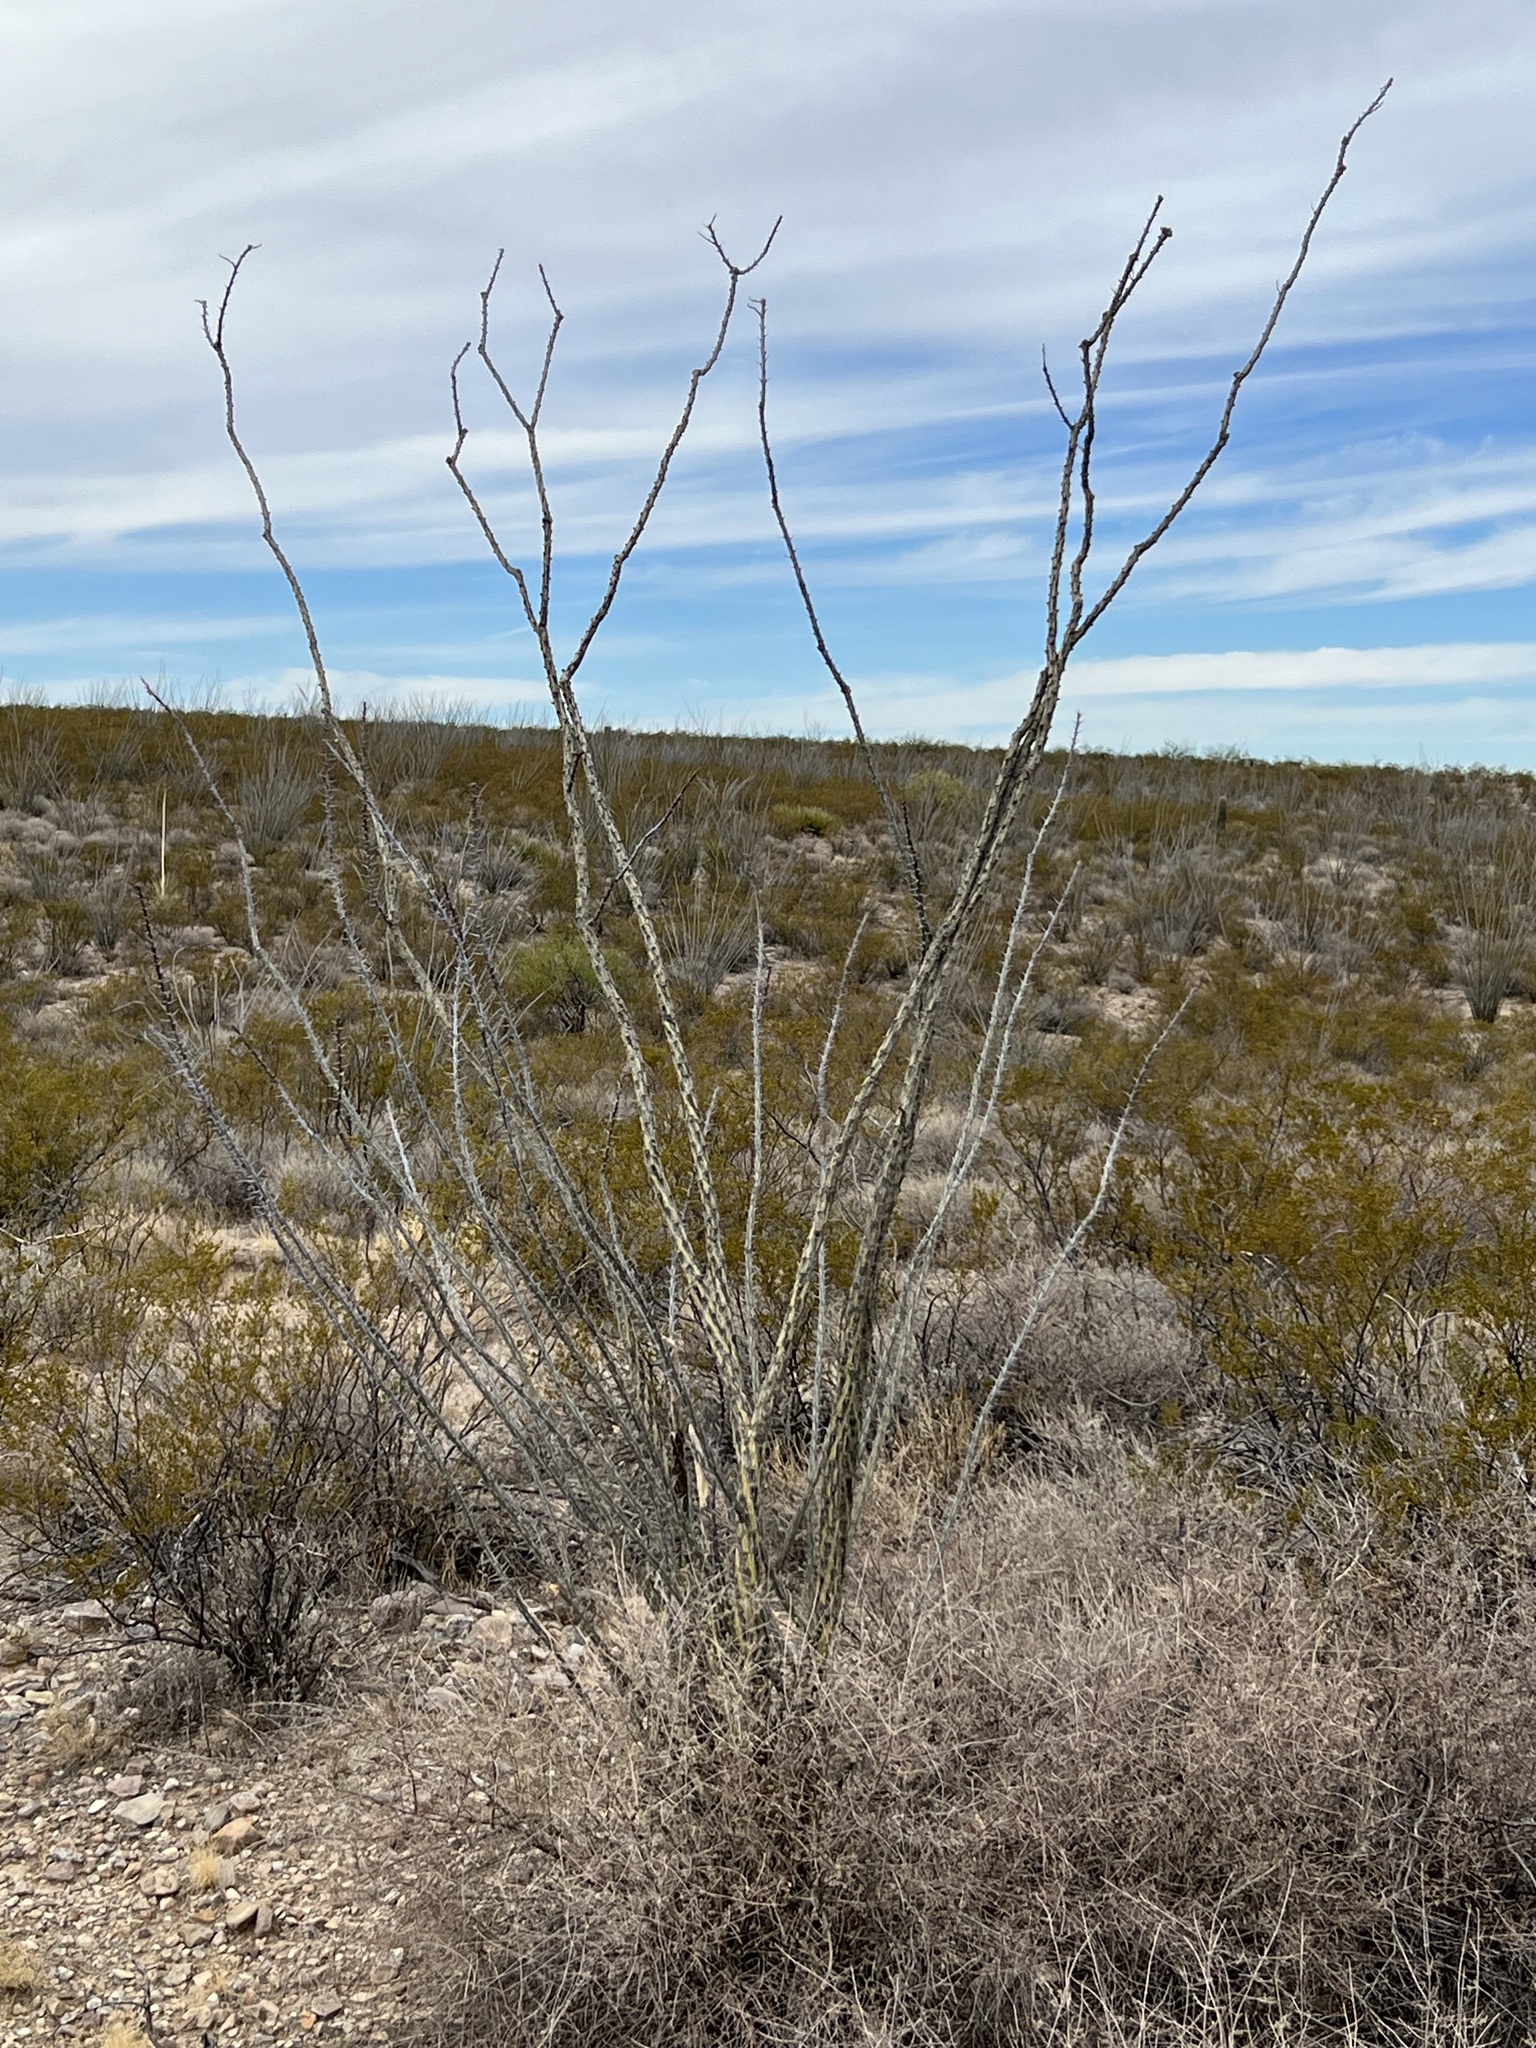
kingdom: Plantae
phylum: Tracheophyta
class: Magnoliopsida
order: Ericales
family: Fouquieriaceae
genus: Fouquieria
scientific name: Fouquieria splendens
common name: Vine-cactus
